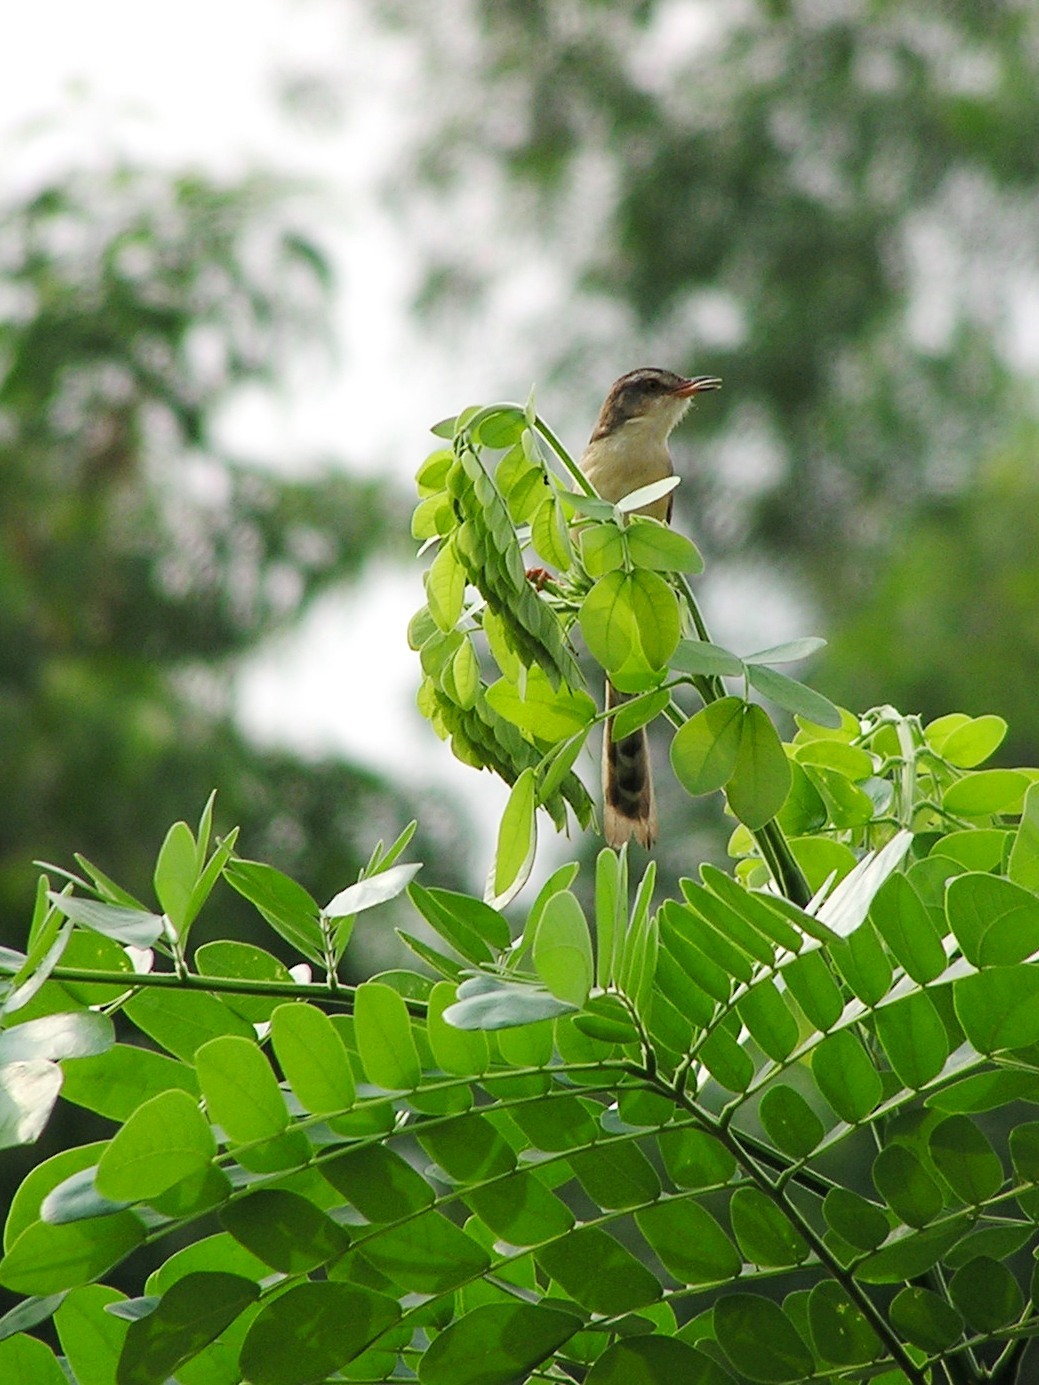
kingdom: Animalia
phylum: Chordata
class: Aves
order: Passeriformes
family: Cisticolidae
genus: Prinia
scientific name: Prinia inornata
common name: Plain prinia
